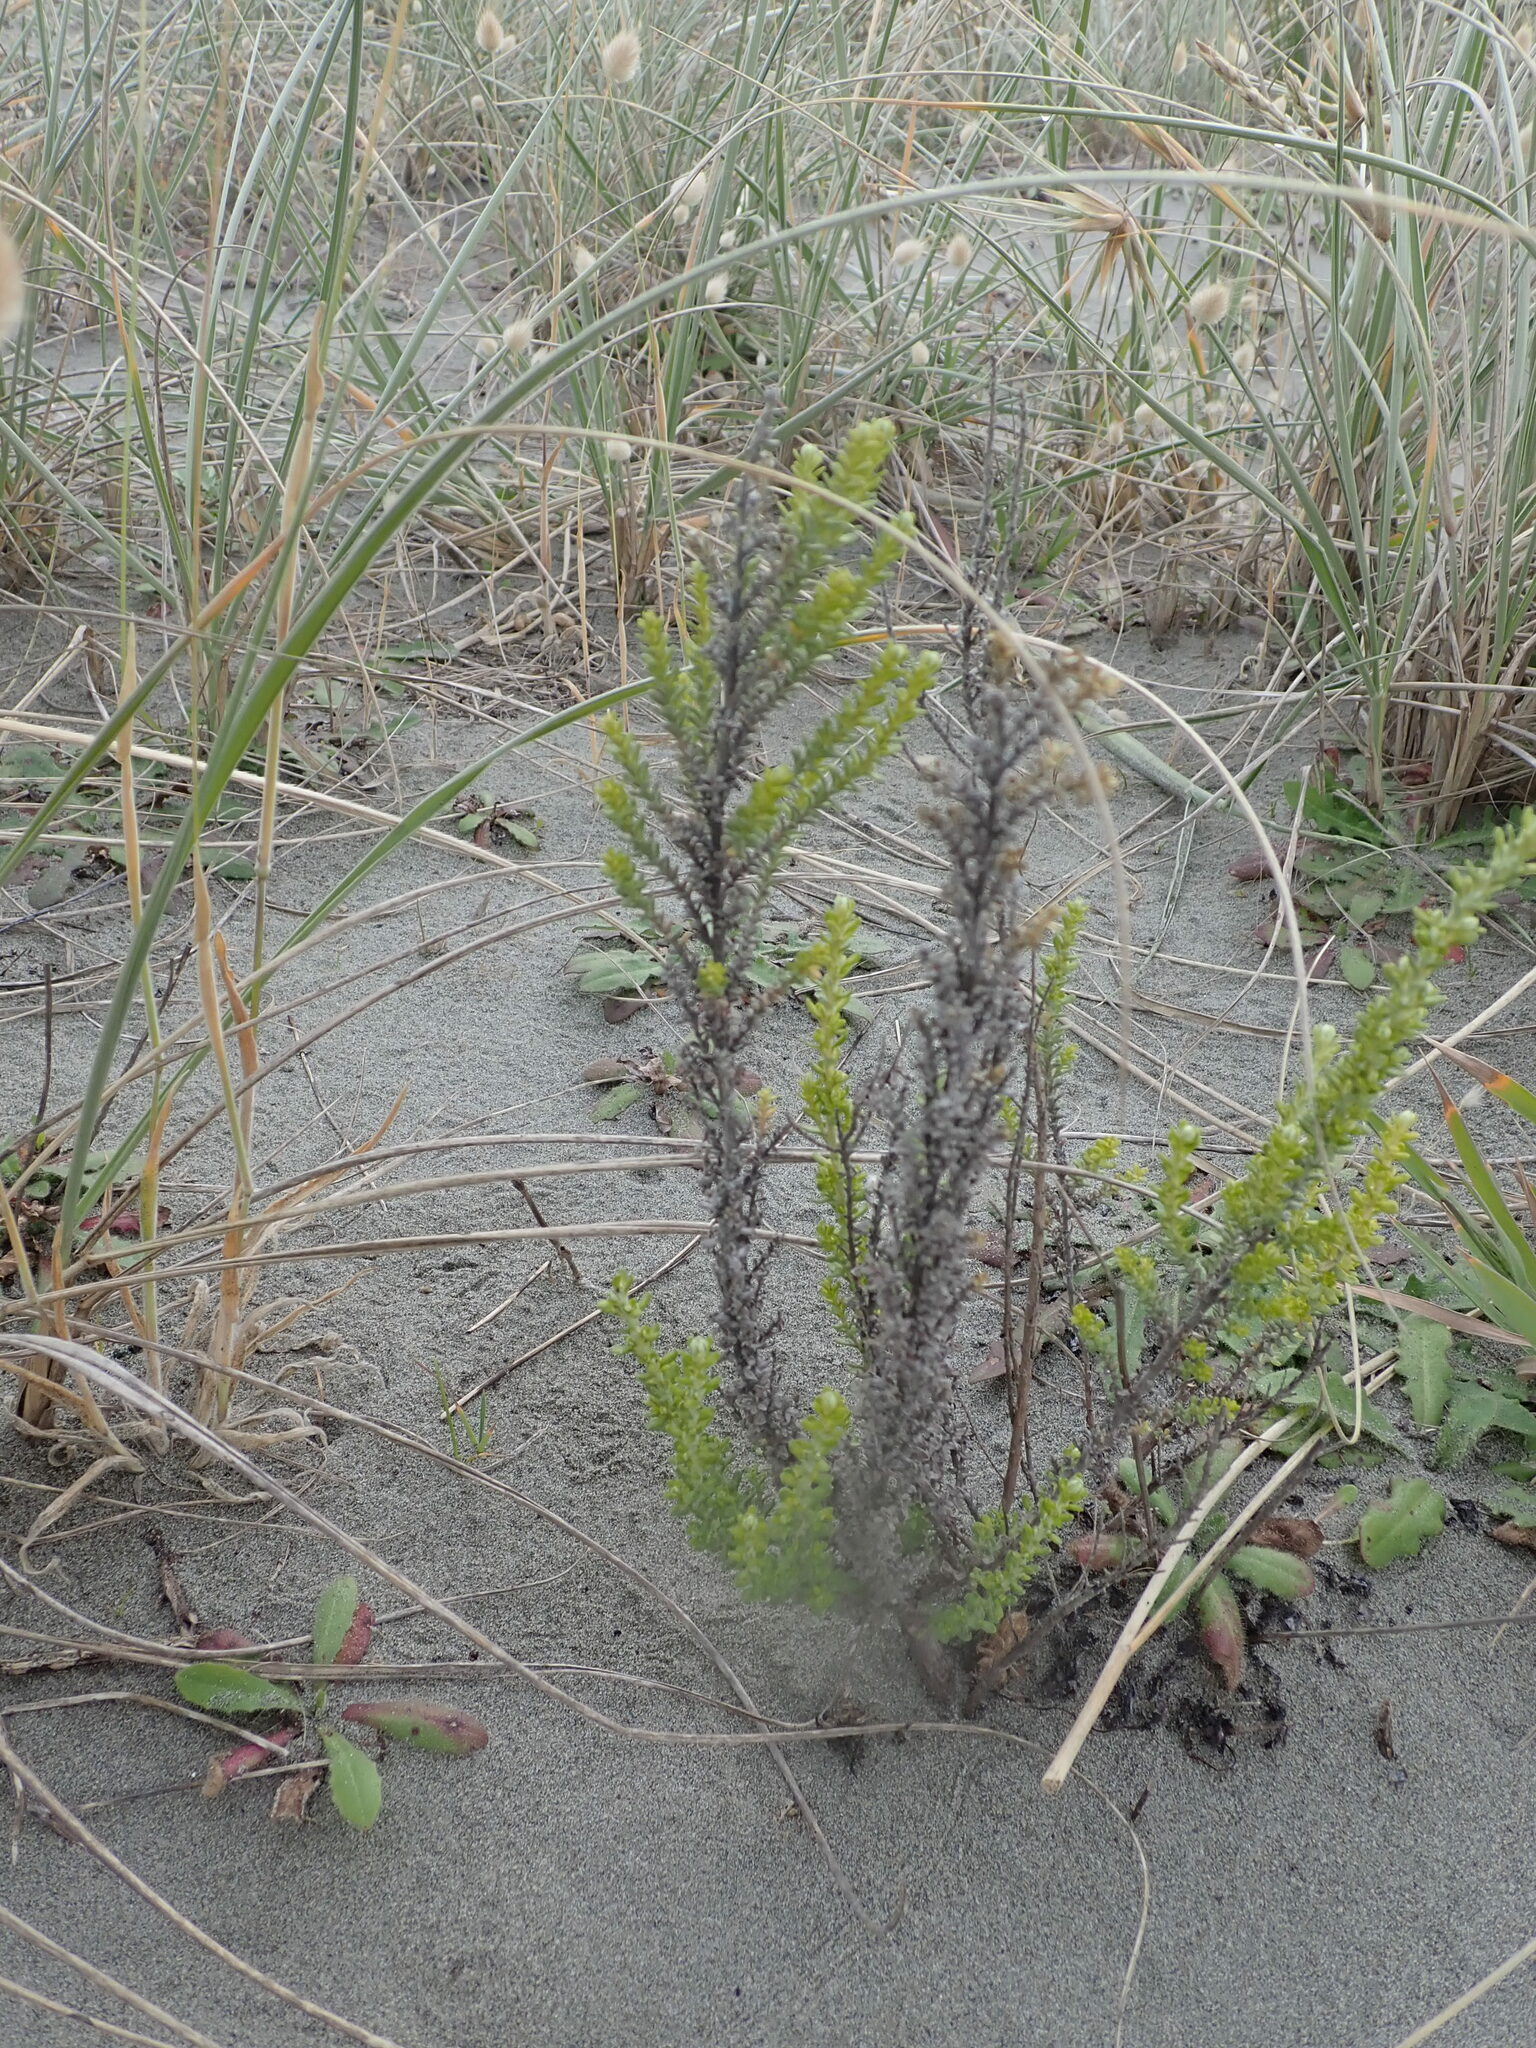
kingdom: Plantae
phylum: Tracheophyta
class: Magnoliopsida
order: Asterales
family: Asteraceae
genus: Ozothamnus
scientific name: Ozothamnus leptophyllus
